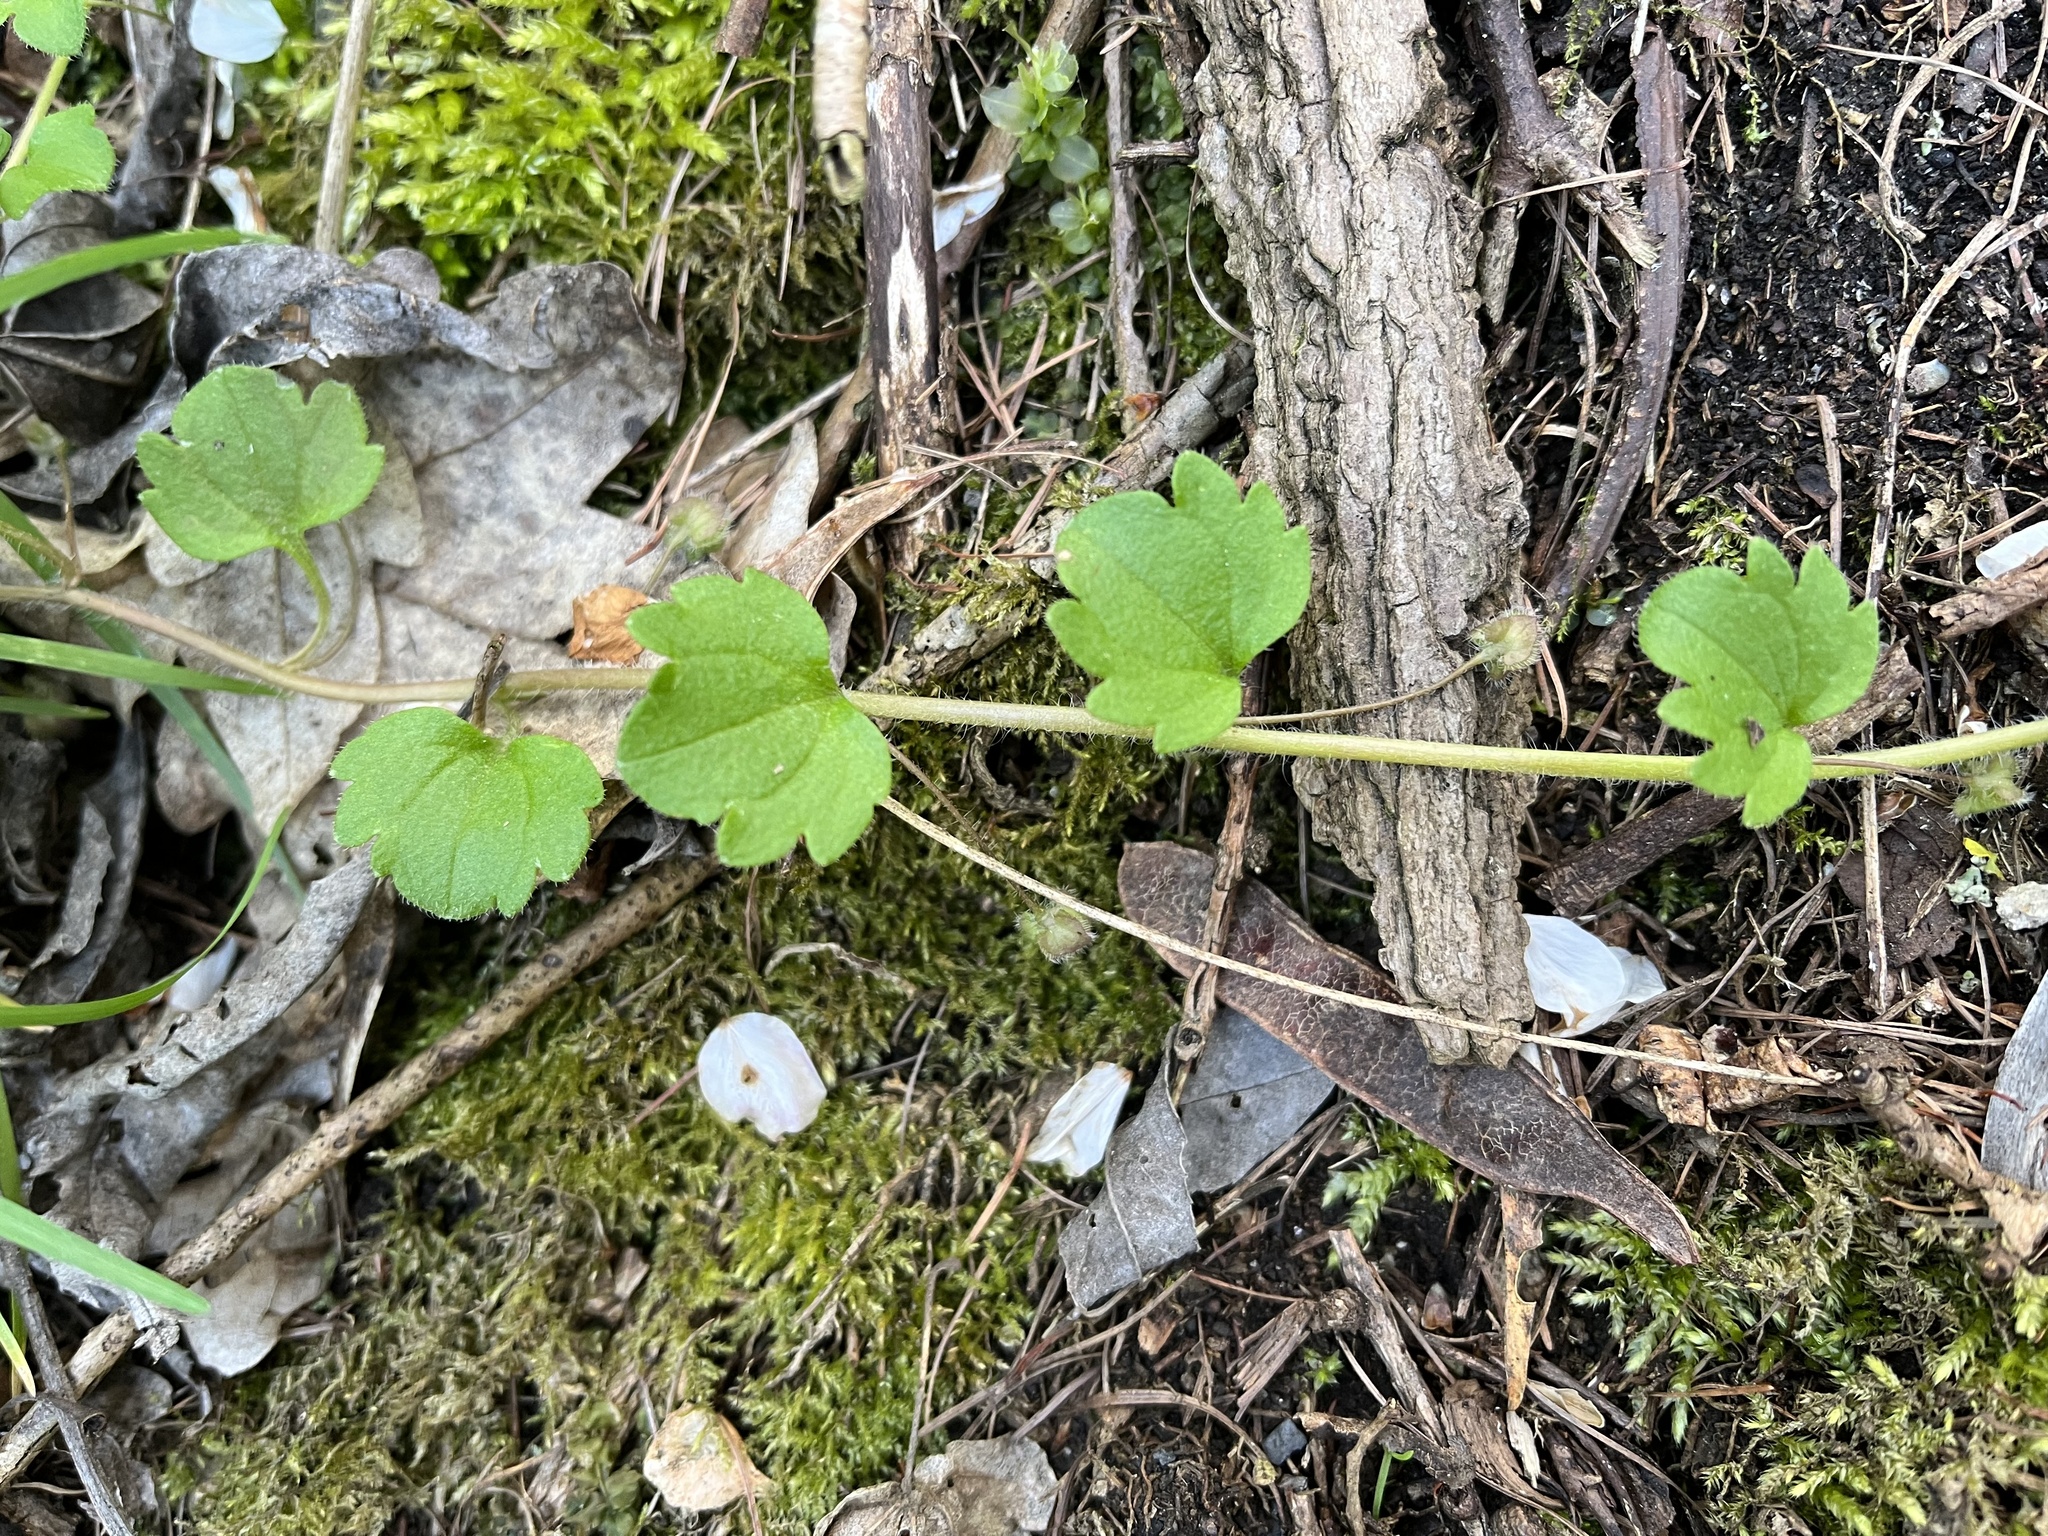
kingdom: Plantae
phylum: Tracheophyta
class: Magnoliopsida
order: Lamiales
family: Plantaginaceae
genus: Veronica
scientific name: Veronica sublobata
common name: False ivy-leaved speedwell
